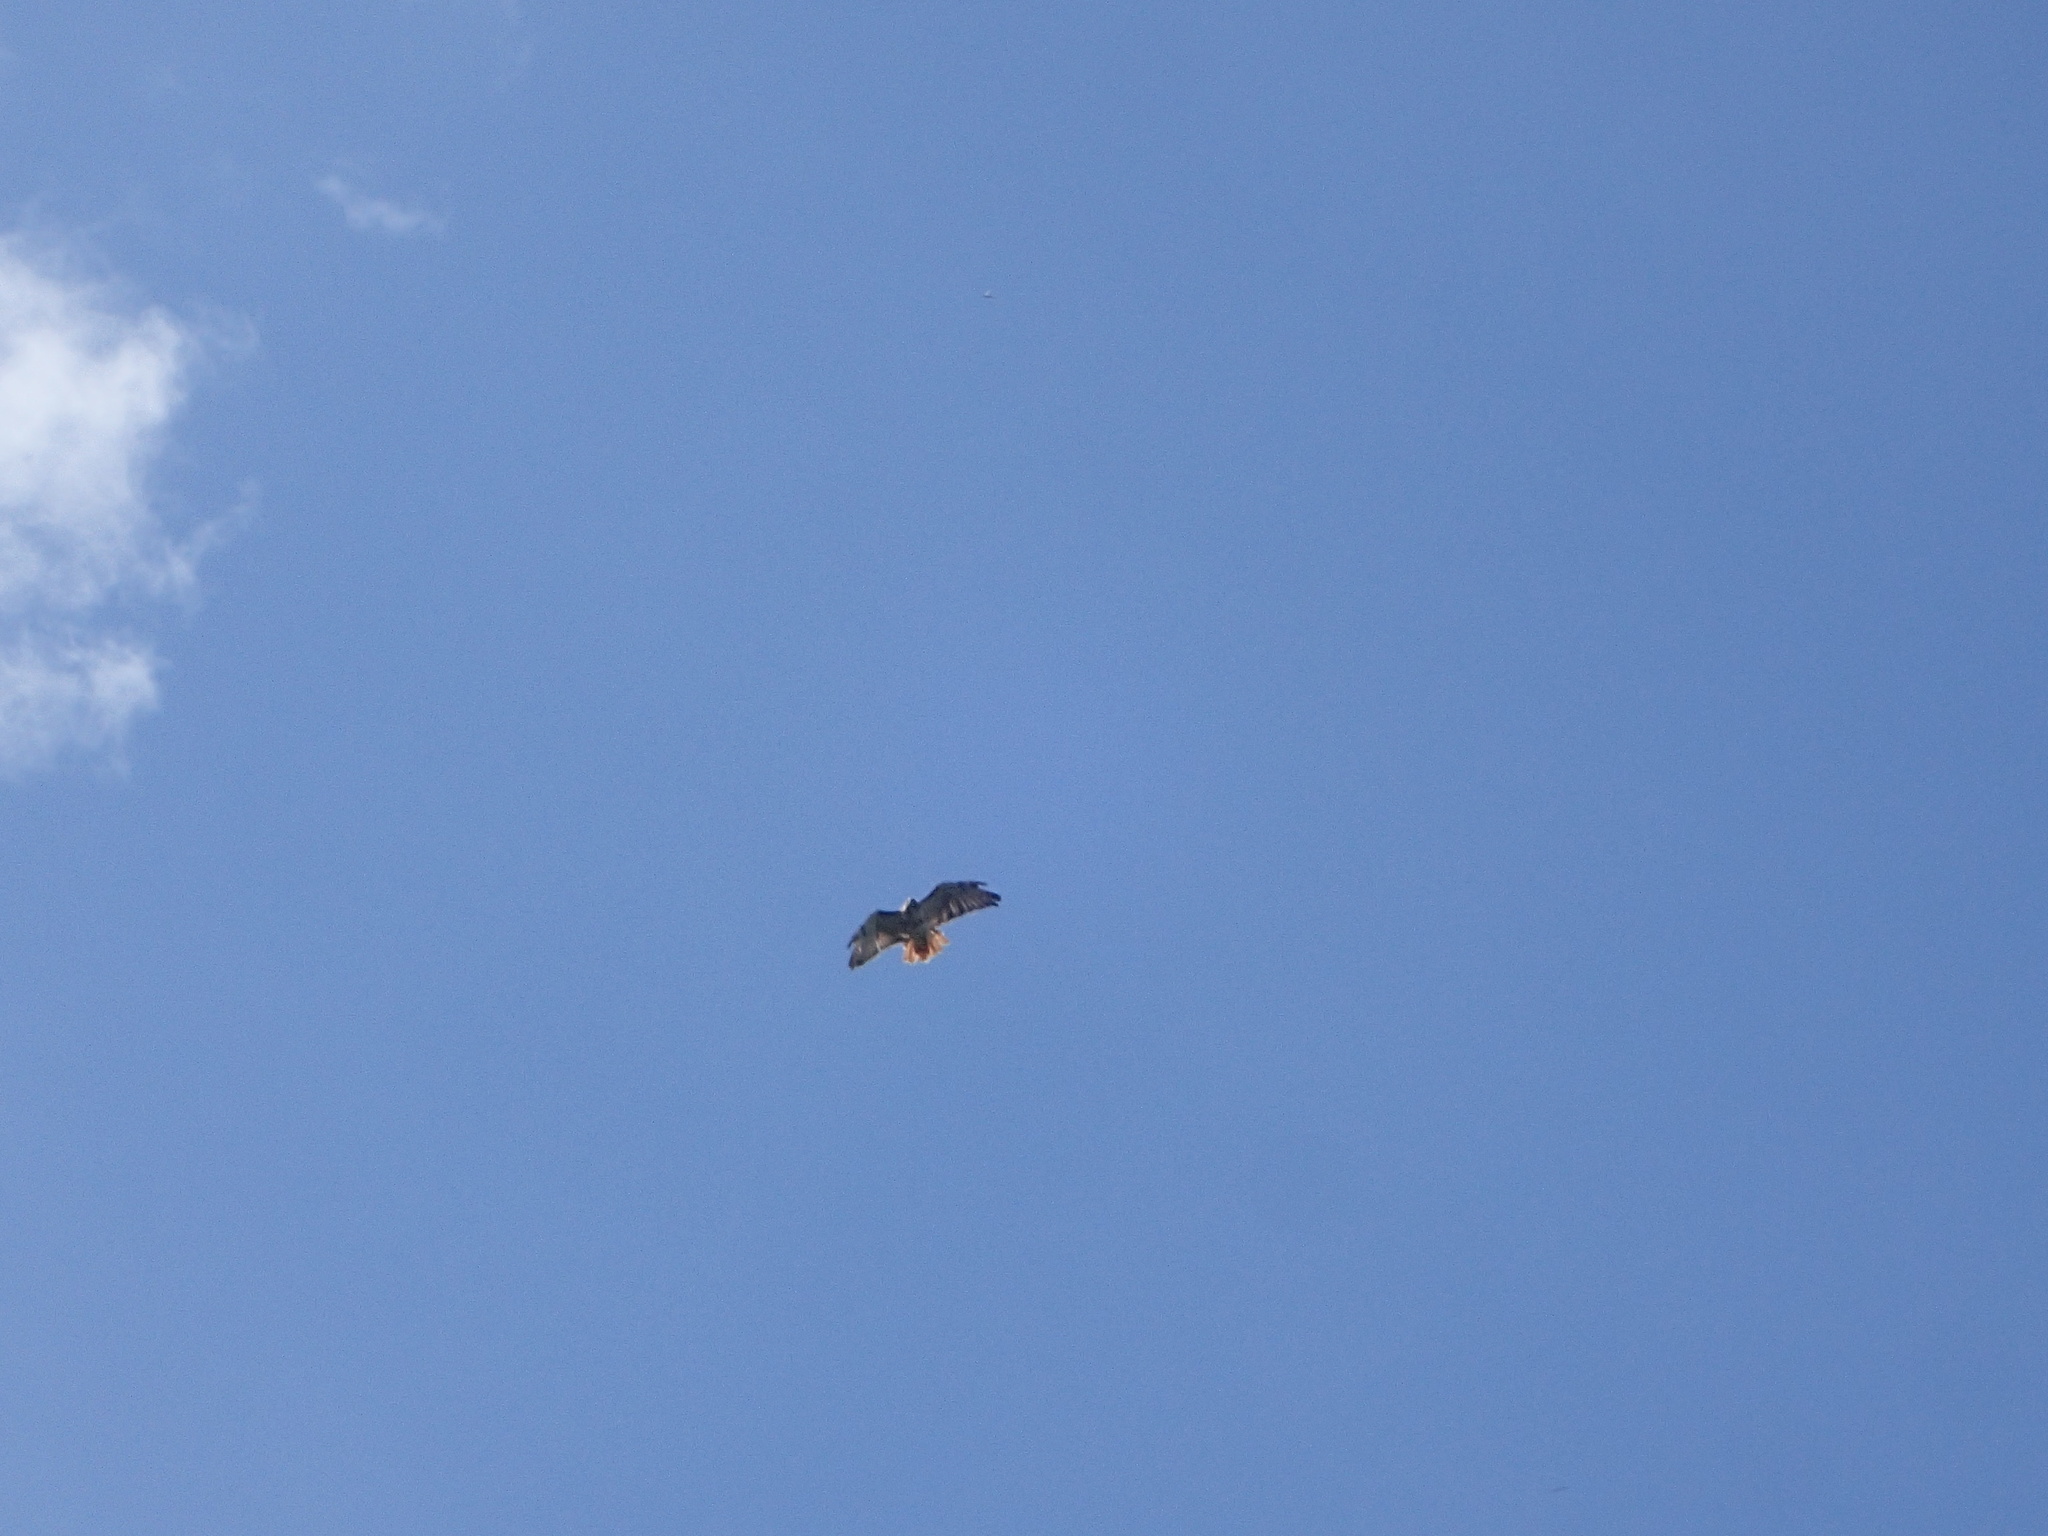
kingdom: Animalia
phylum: Chordata
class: Aves
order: Accipitriformes
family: Accipitridae
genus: Buteo
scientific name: Buteo jamaicensis
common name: Red-tailed hawk
